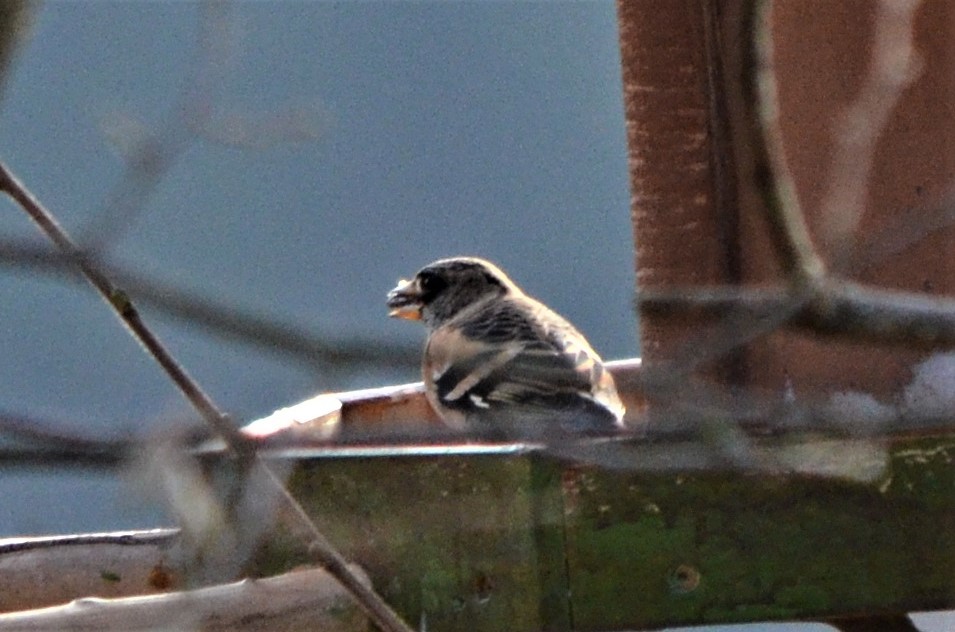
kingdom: Animalia
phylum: Chordata
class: Aves
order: Passeriformes
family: Fringillidae
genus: Fringilla
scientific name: Fringilla montifringilla
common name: Brambling
